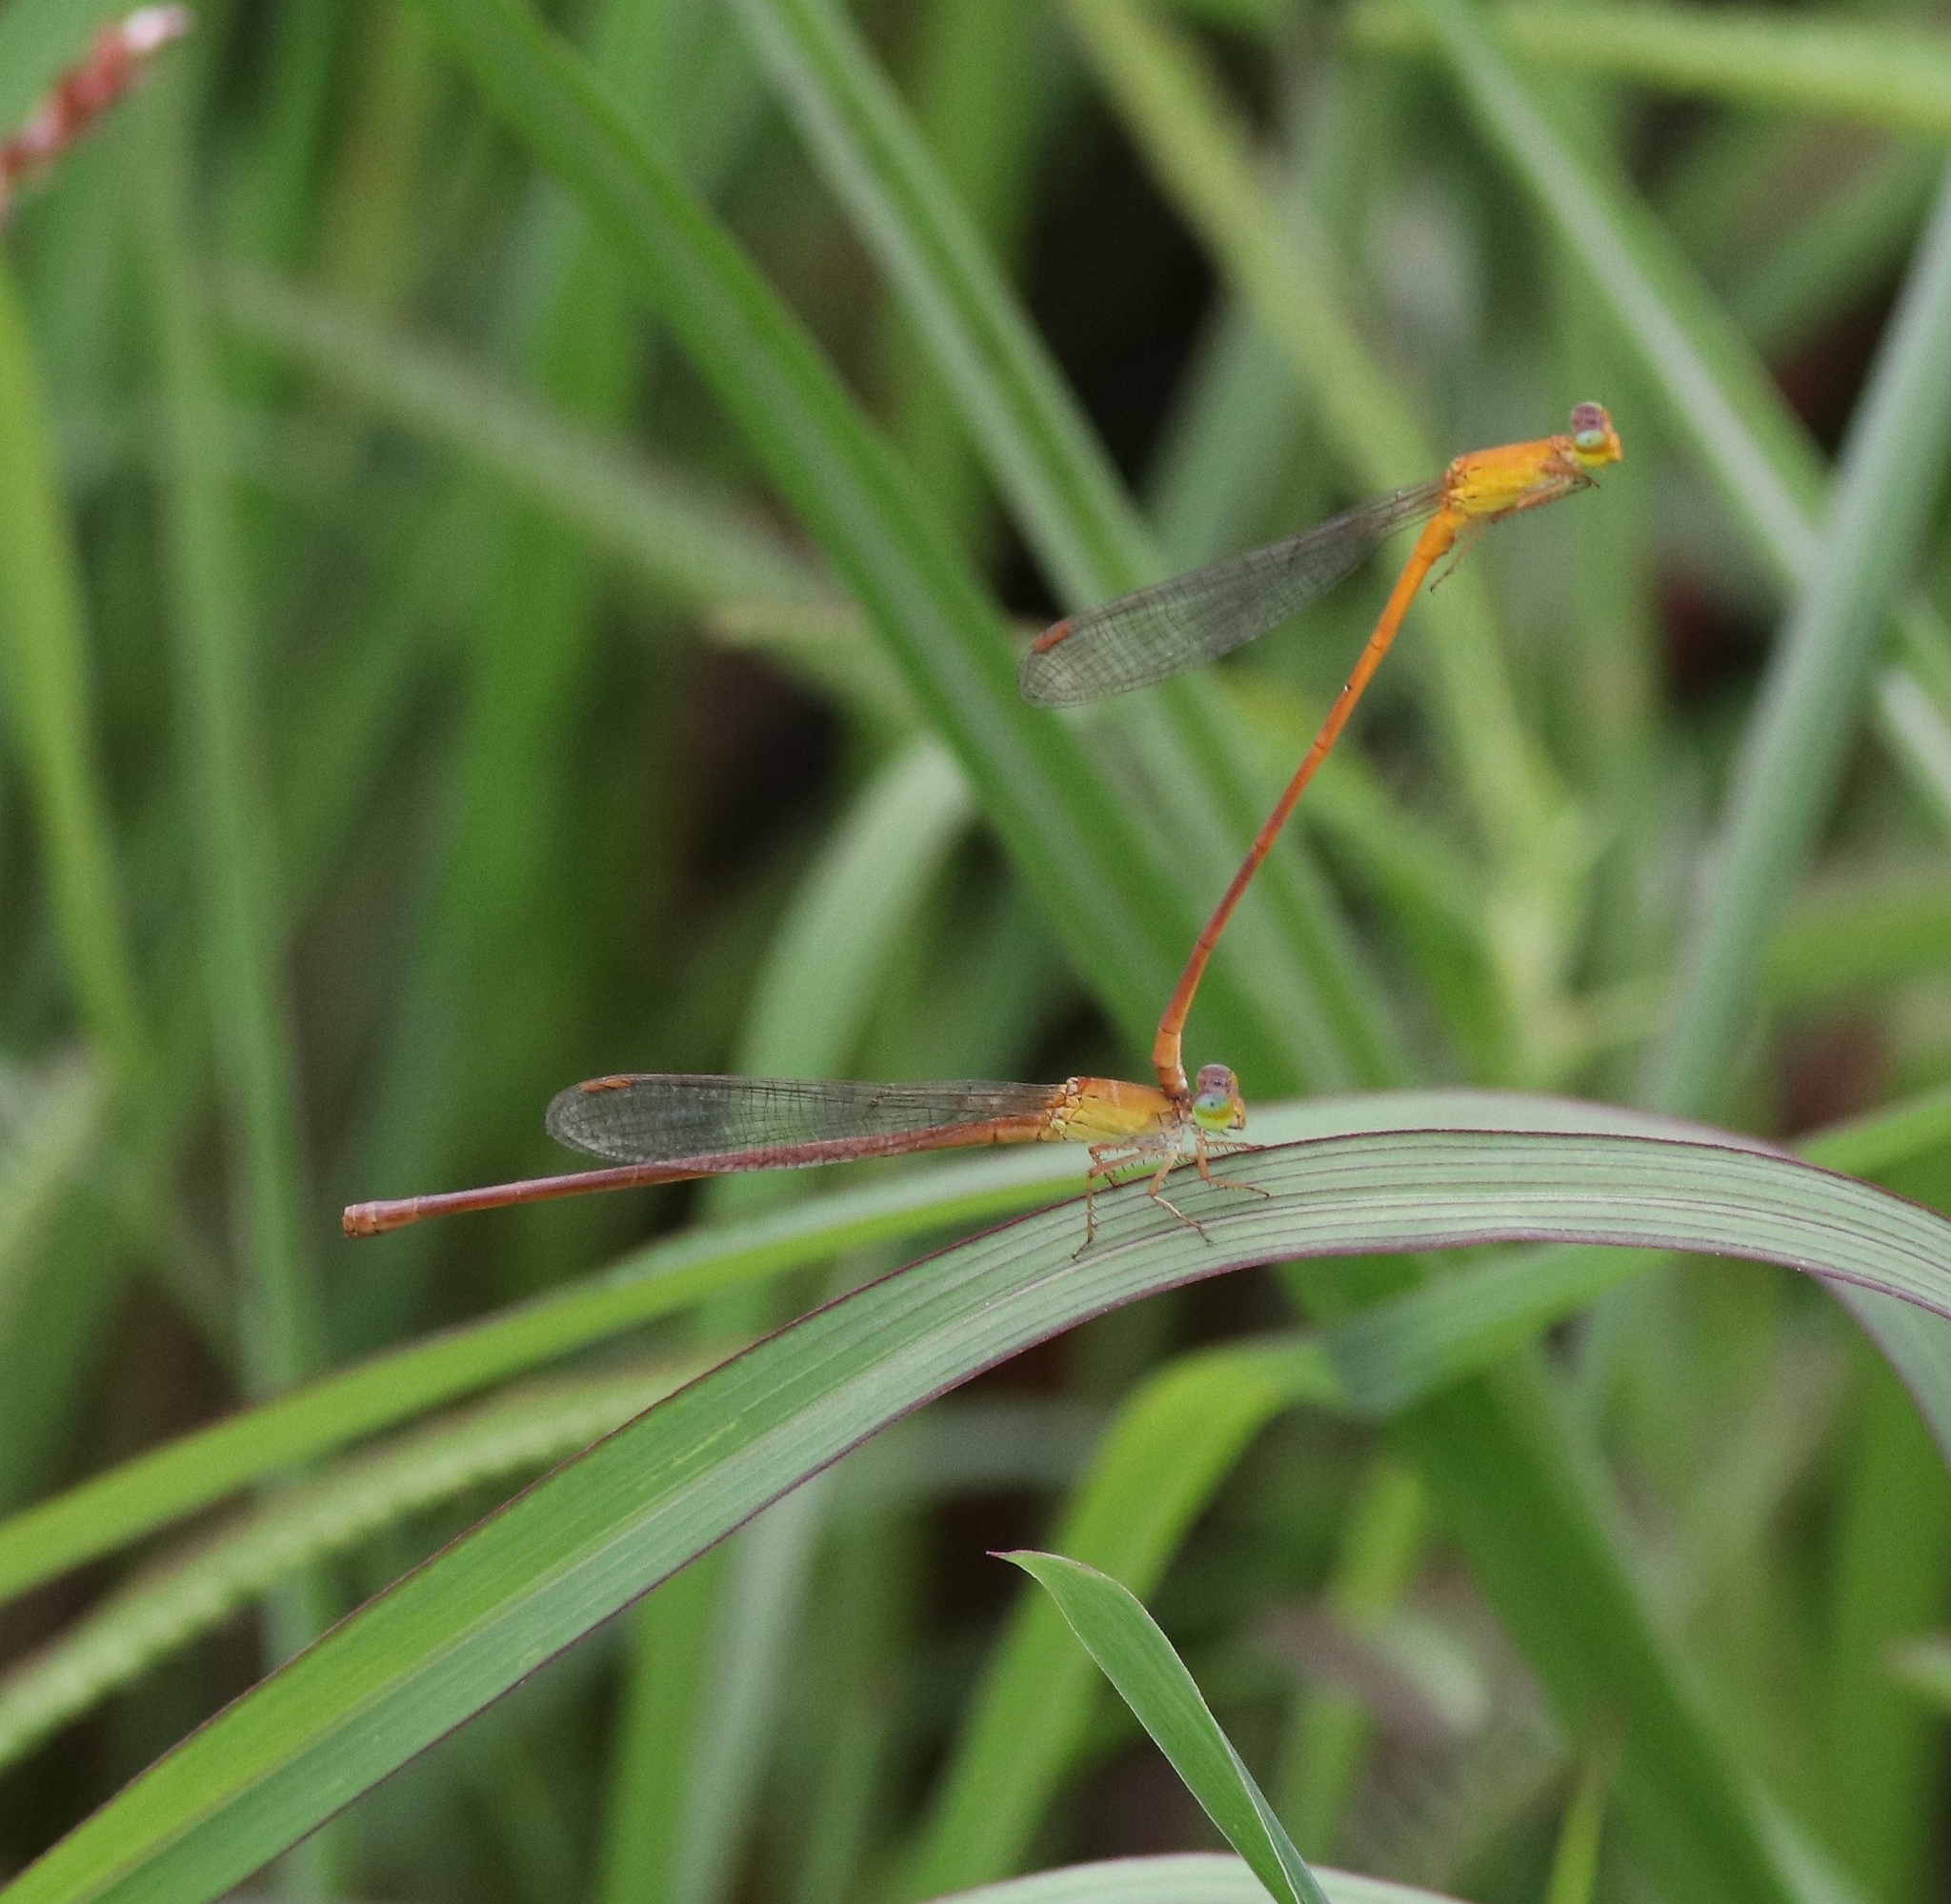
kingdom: Animalia
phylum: Arthropoda
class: Insecta
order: Odonata
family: Coenagrionidae
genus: Ceriagrion
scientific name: Ceriagrion rubiae
